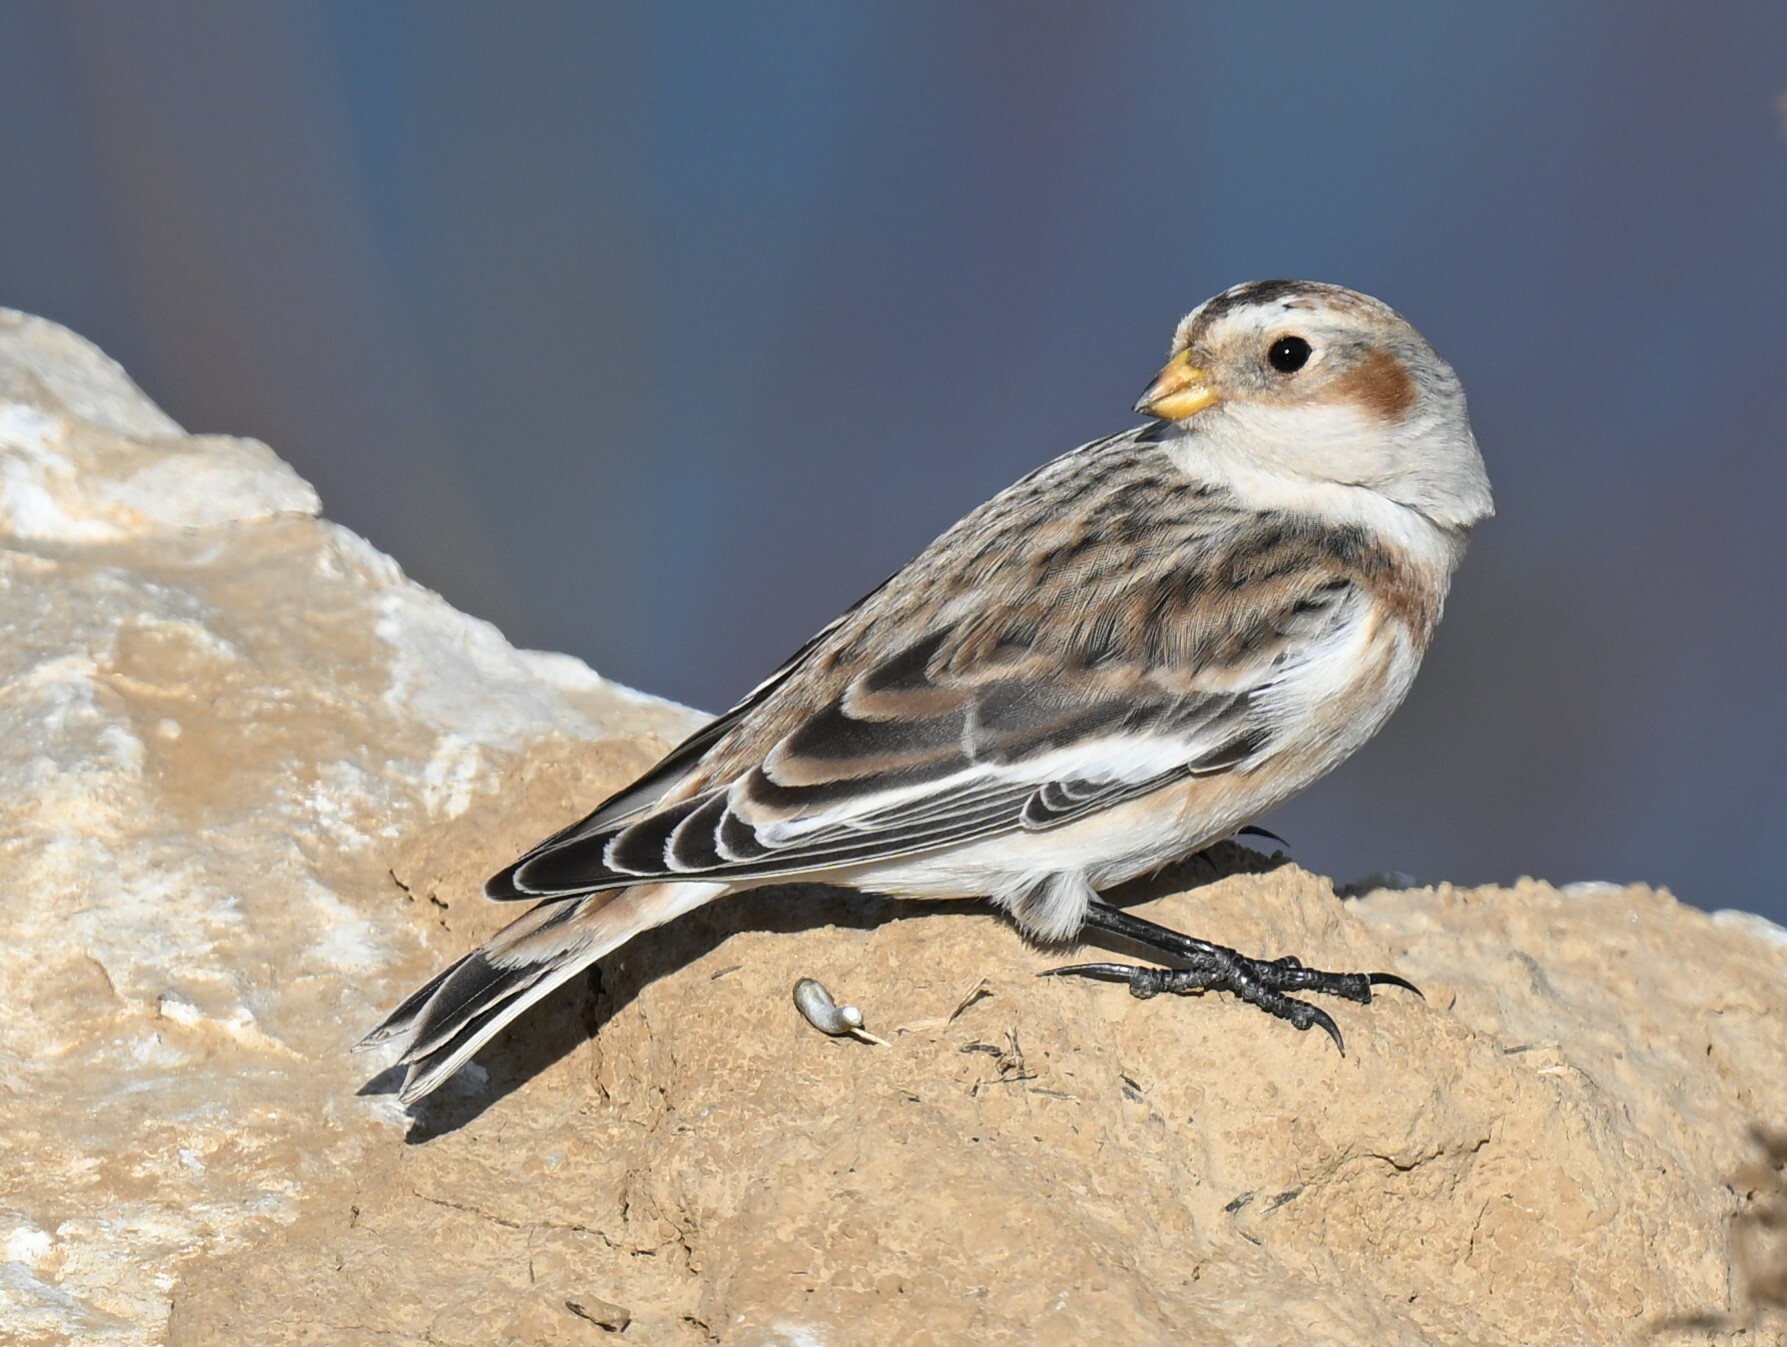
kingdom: Animalia
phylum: Chordata
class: Aves
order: Passeriformes
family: Calcariidae
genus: Plectrophenax
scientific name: Plectrophenax nivalis
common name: Snow bunting
